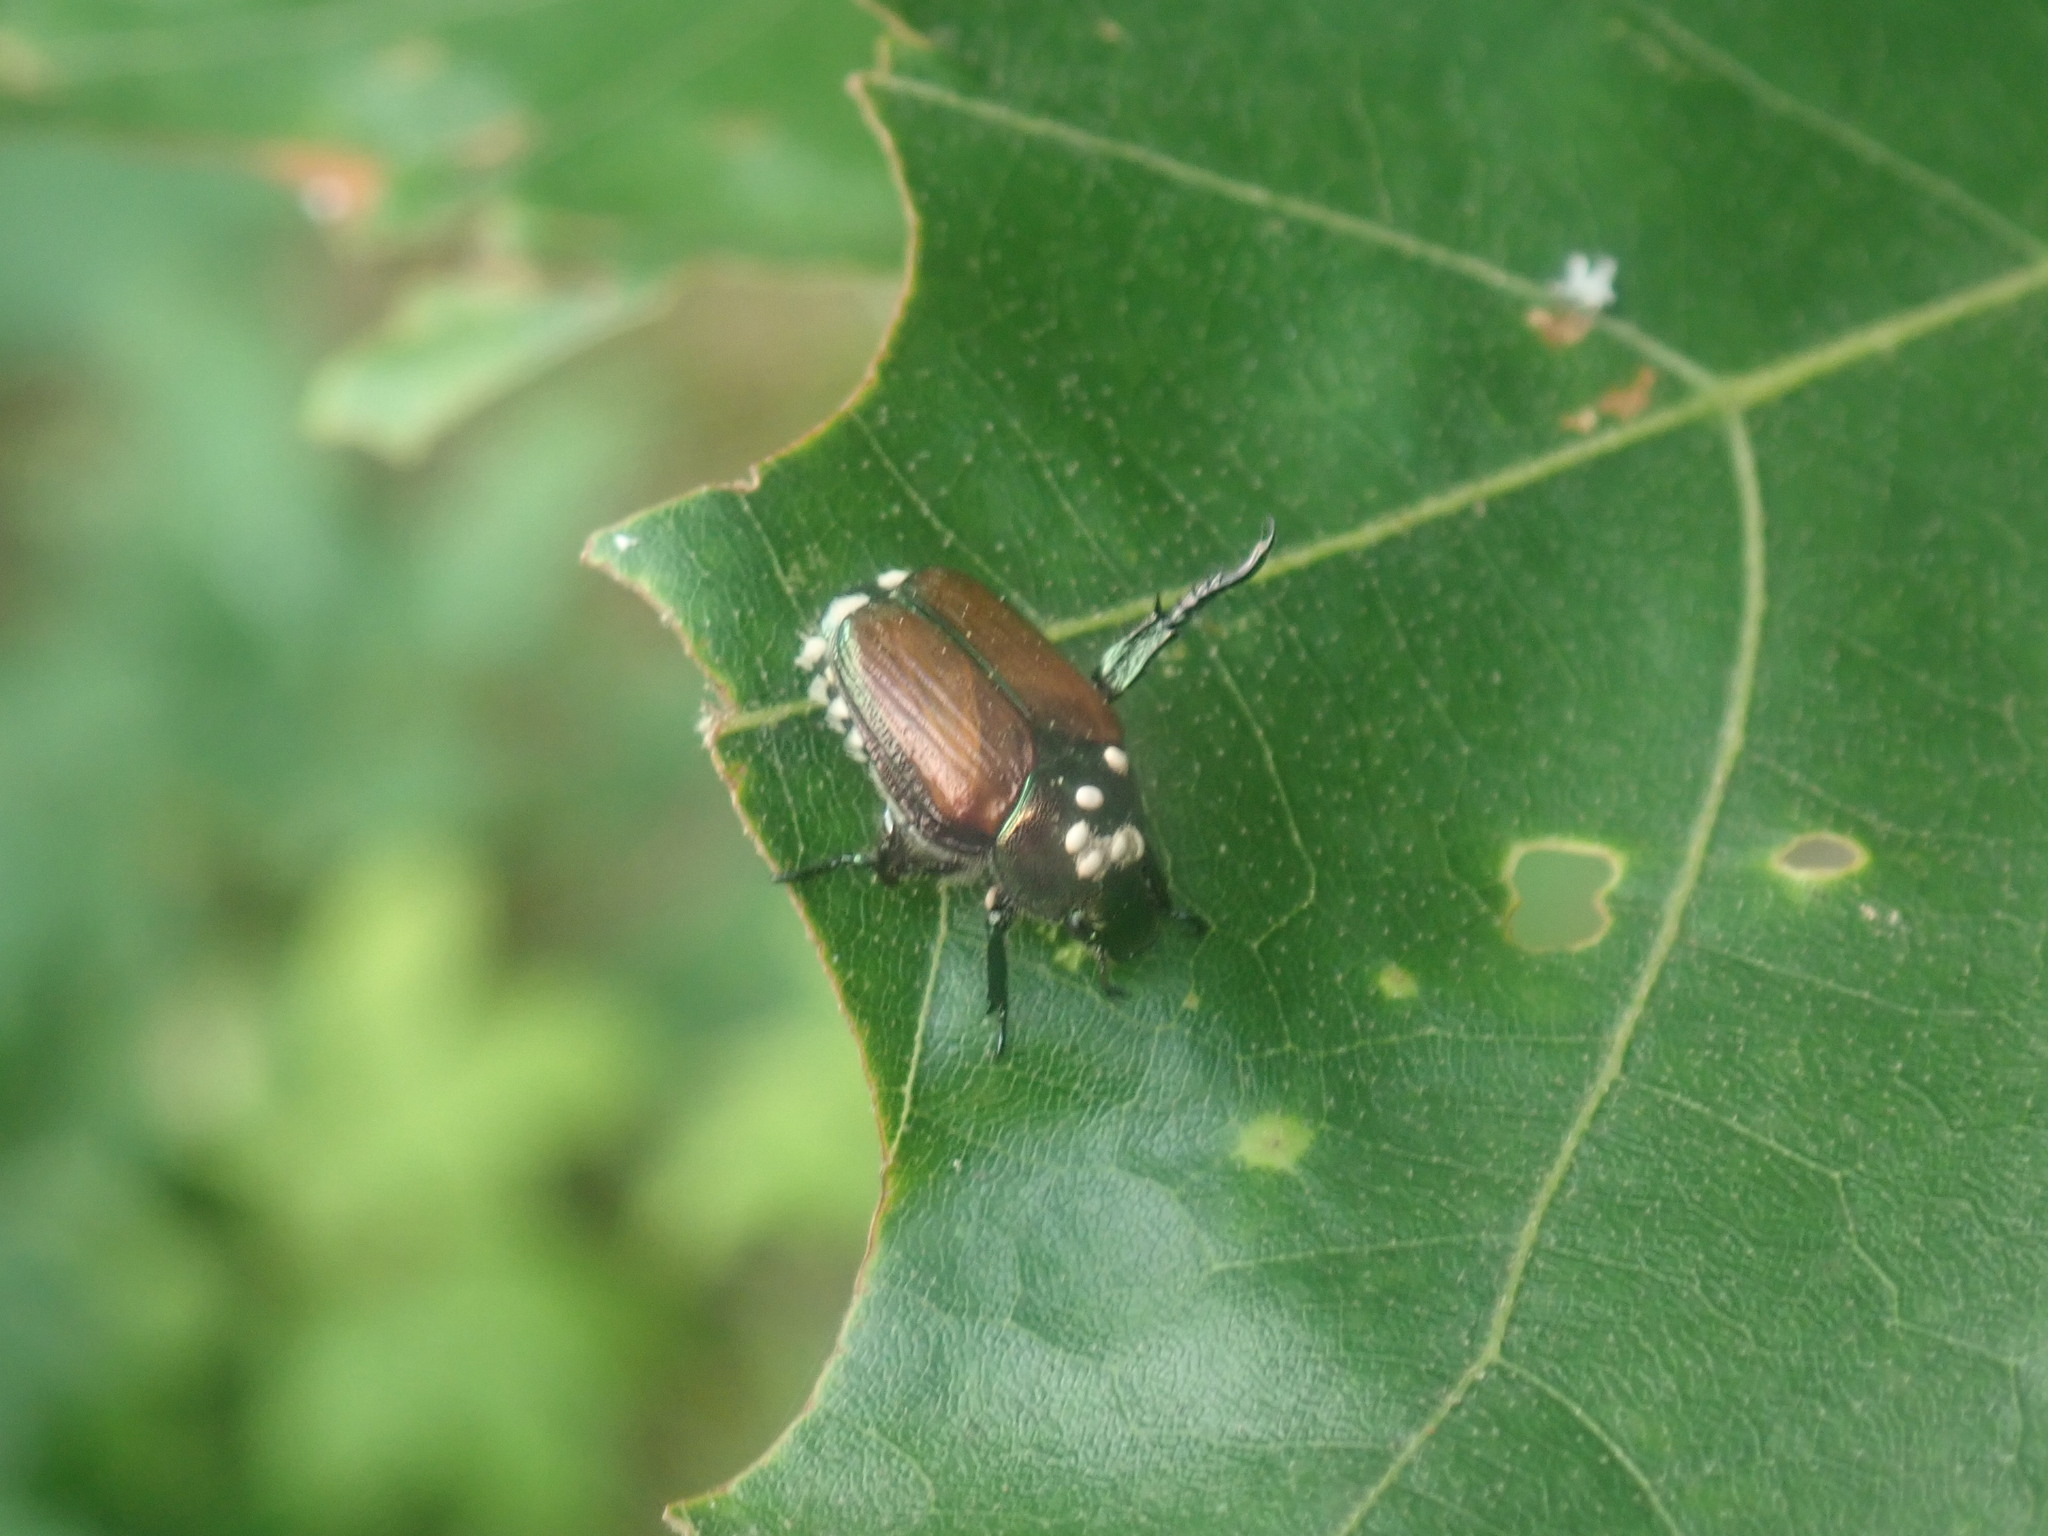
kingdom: Animalia
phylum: Arthropoda
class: Insecta
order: Coleoptera
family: Scarabaeidae
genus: Popillia
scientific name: Popillia japonica
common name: Japanese beetle
